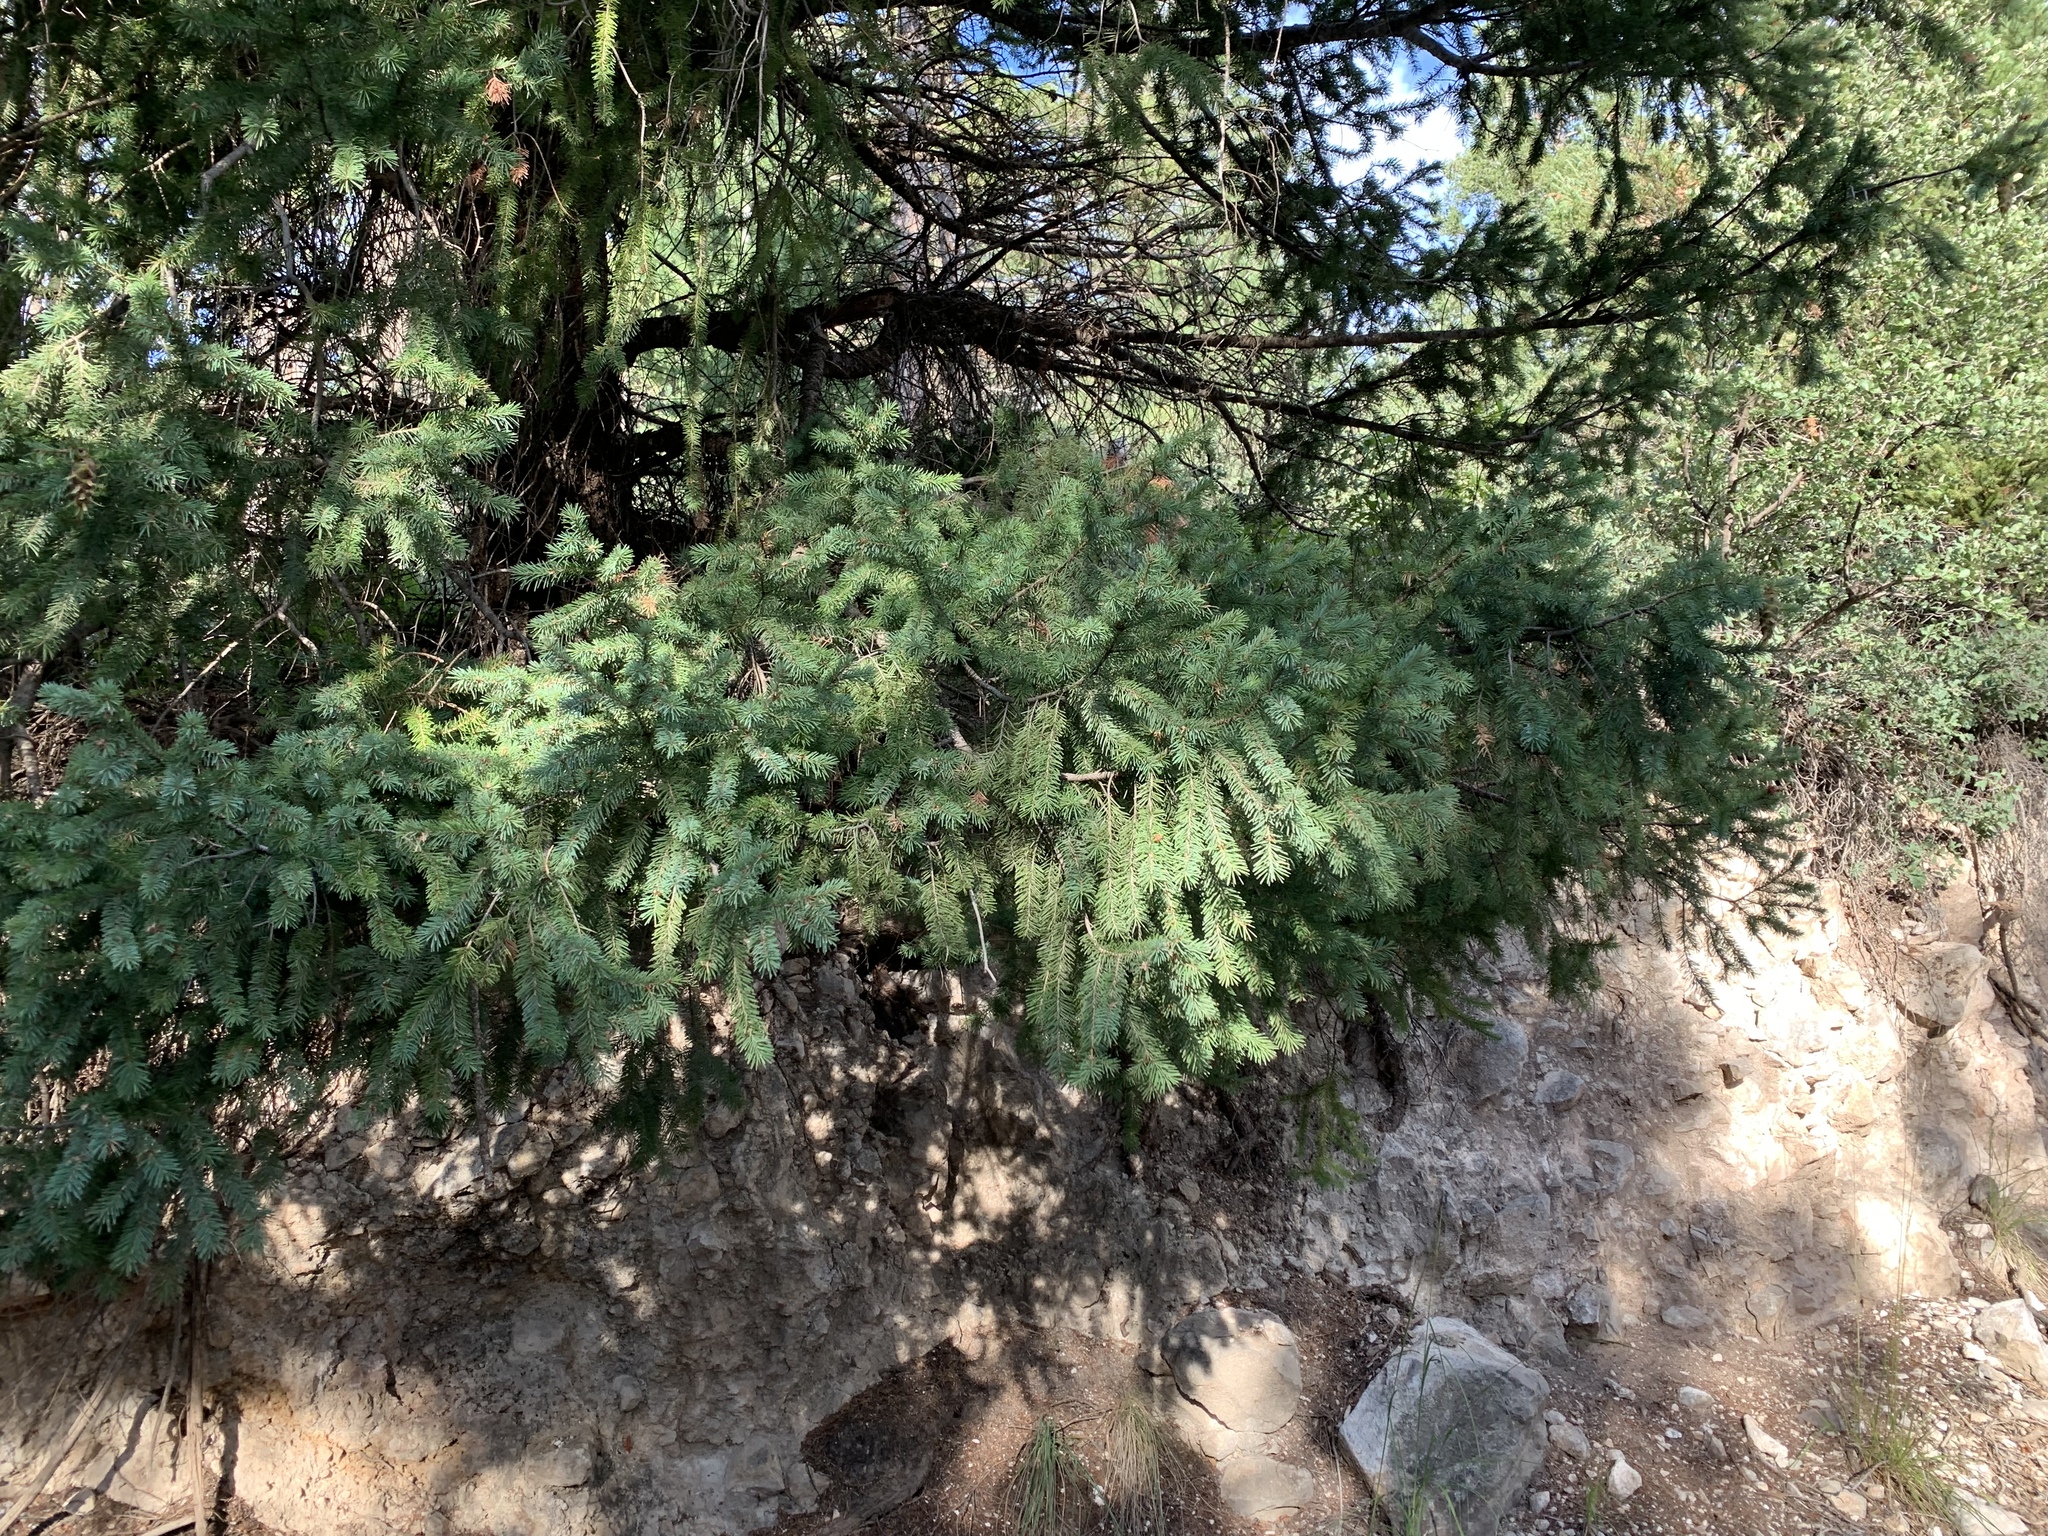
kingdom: Plantae
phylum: Tracheophyta
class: Pinopsida
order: Pinales
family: Pinaceae
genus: Pseudotsuga
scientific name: Pseudotsuga menziesii
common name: Douglas fir
